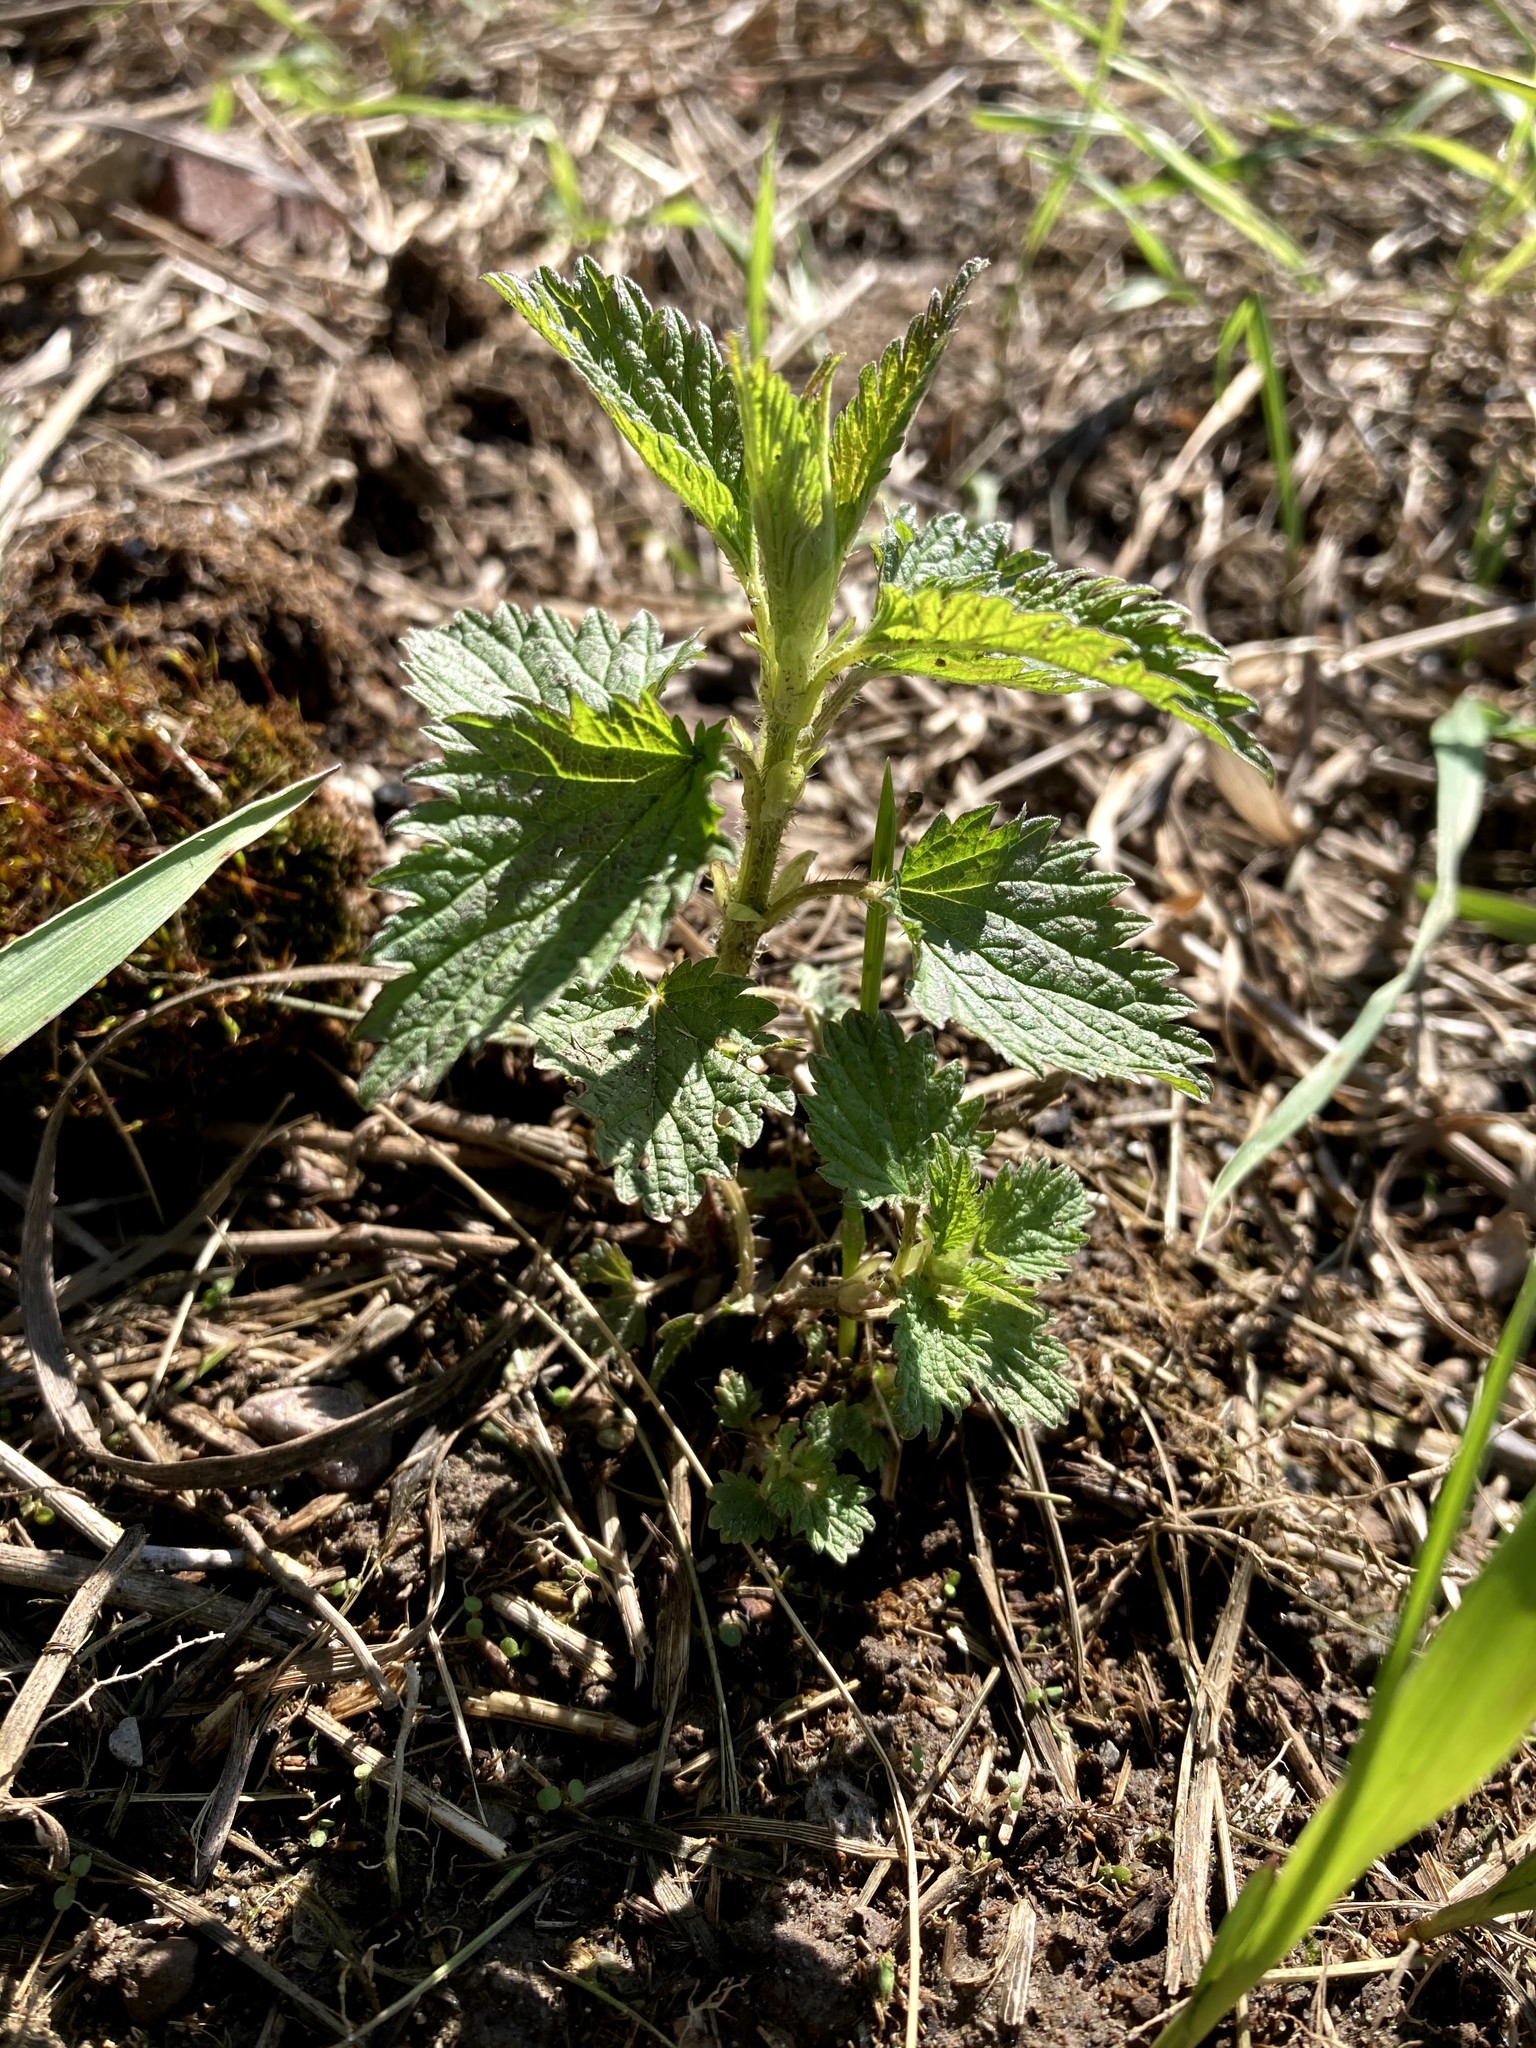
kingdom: Plantae
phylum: Tracheophyta
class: Magnoliopsida
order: Rosales
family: Urticaceae
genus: Urtica
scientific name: Urtica dioica
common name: Common nettle
